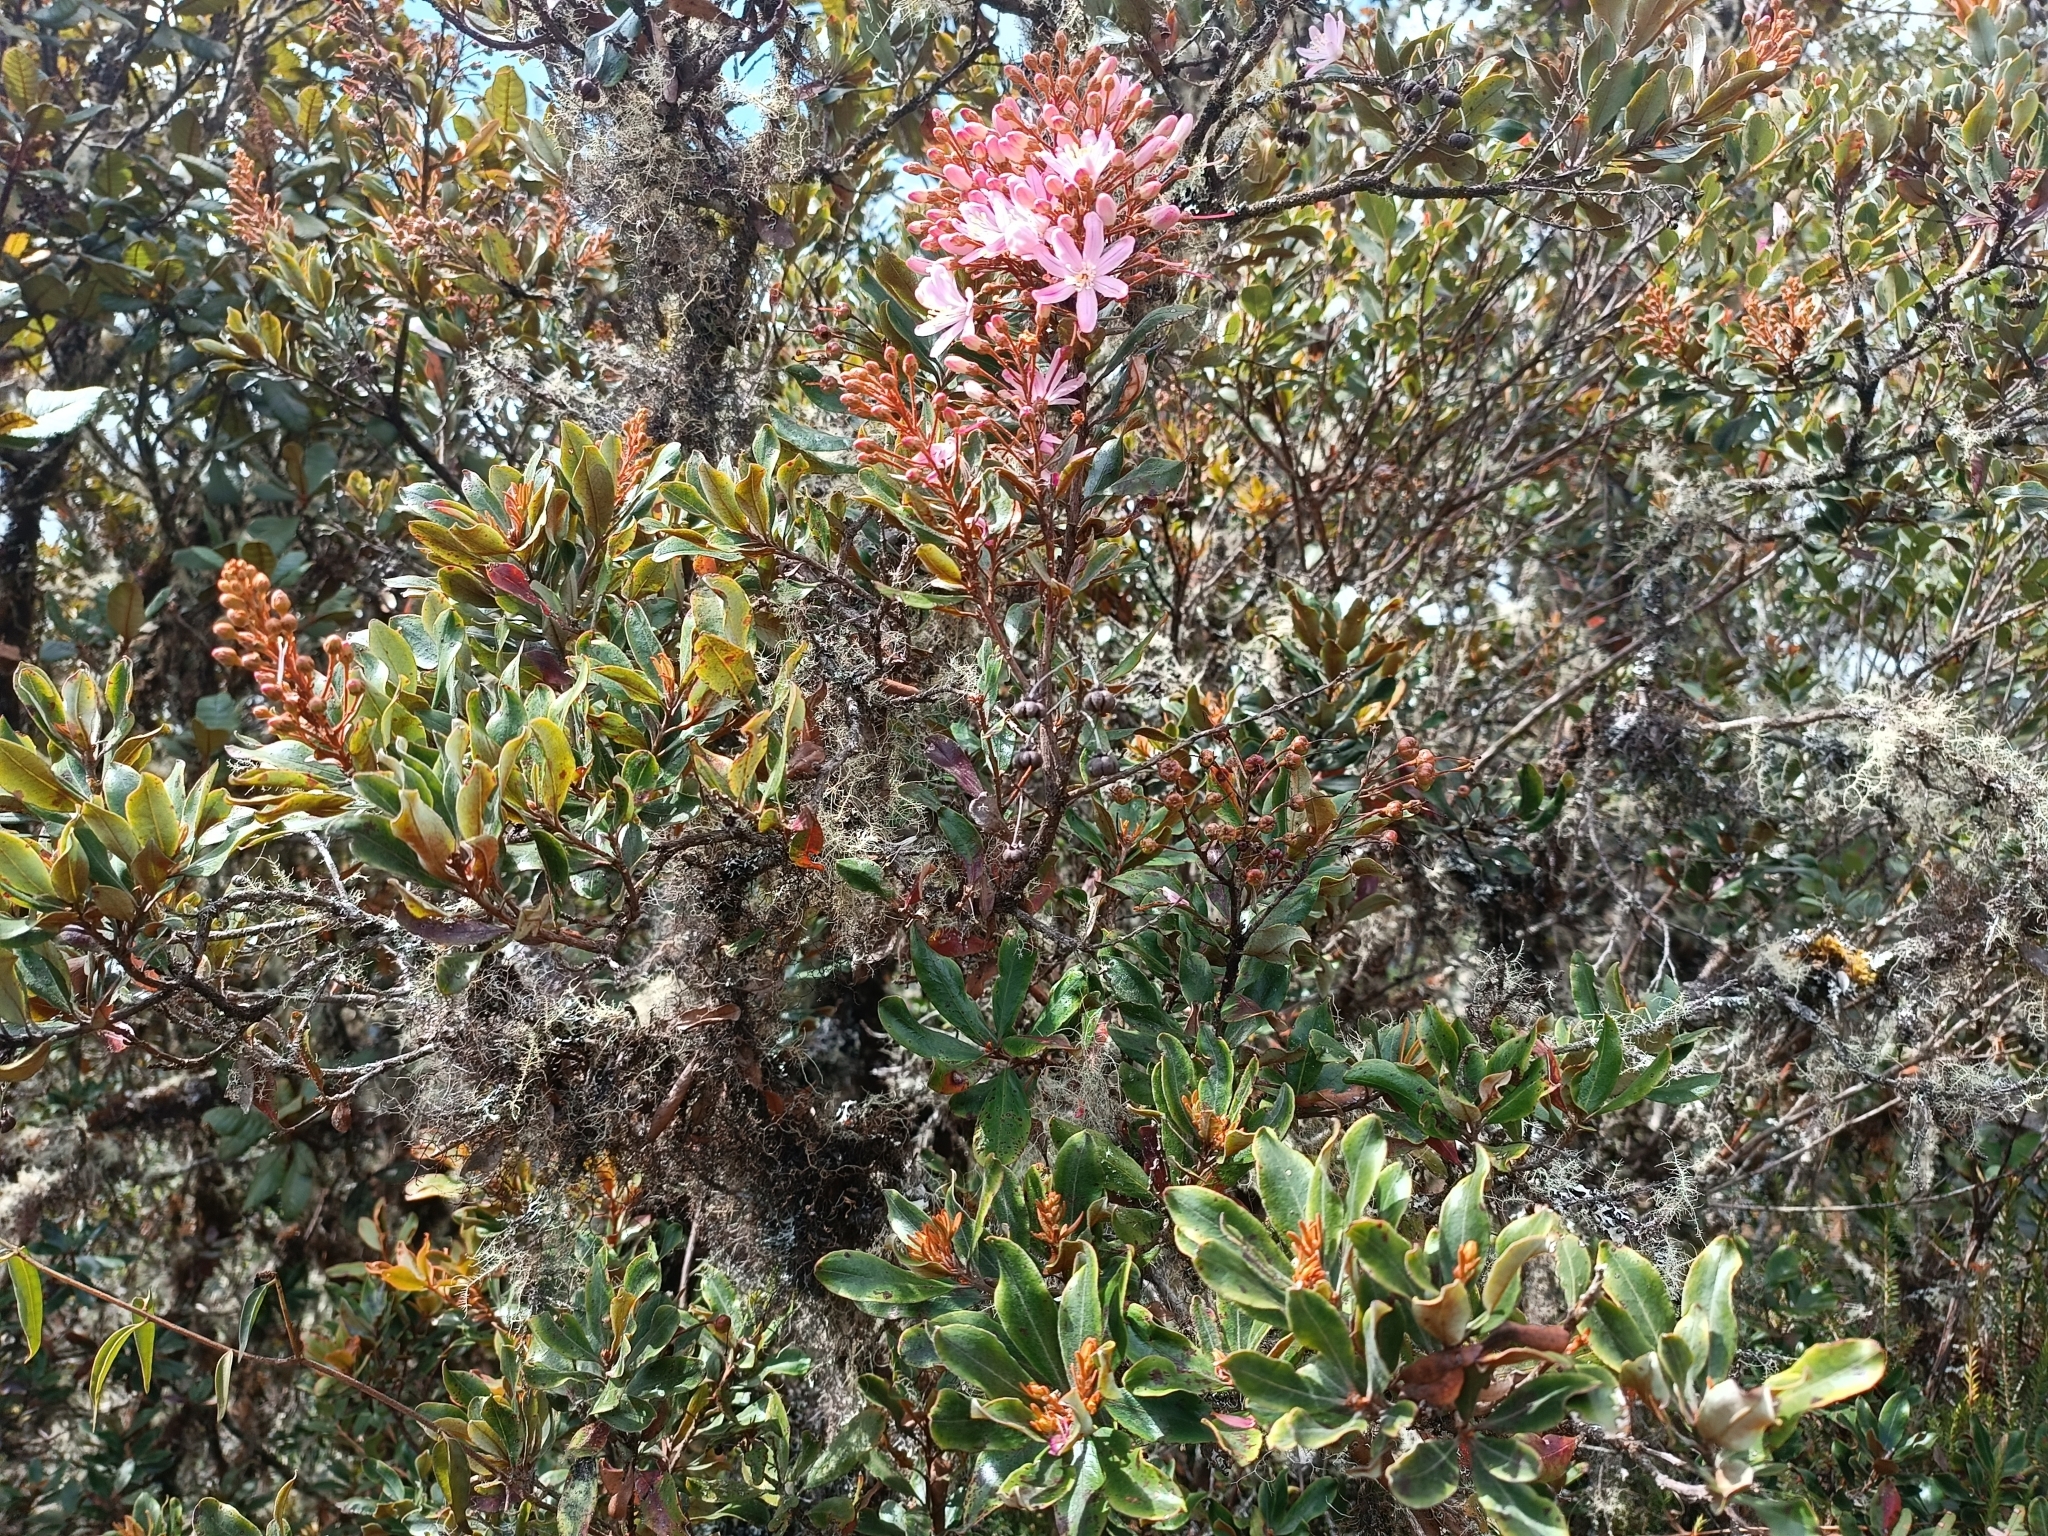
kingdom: Plantae
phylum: Tracheophyta
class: Magnoliopsida
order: Ericales
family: Ericaceae
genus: Bejaria
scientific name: Bejaria aestuans
